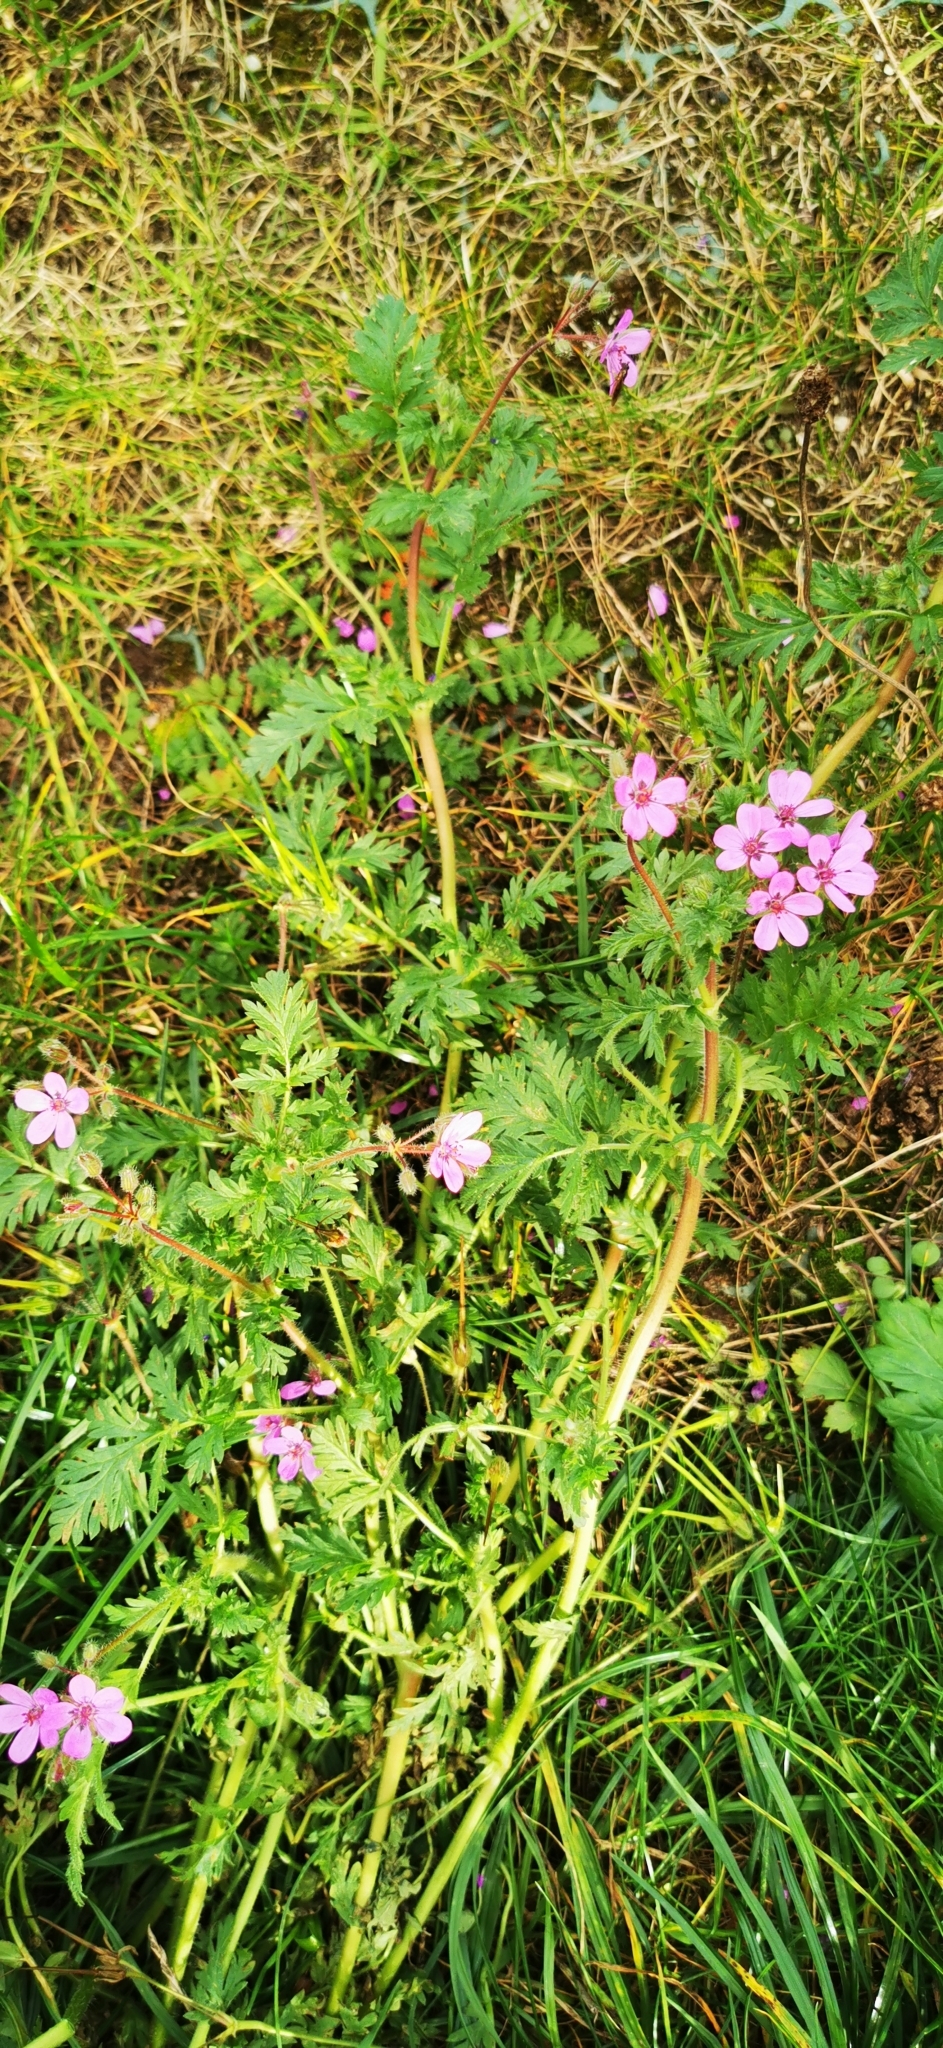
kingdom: Plantae
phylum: Tracheophyta
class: Magnoliopsida
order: Geraniales
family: Geraniaceae
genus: Erodium
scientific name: Erodium cicutarium
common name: Common stork's-bill
